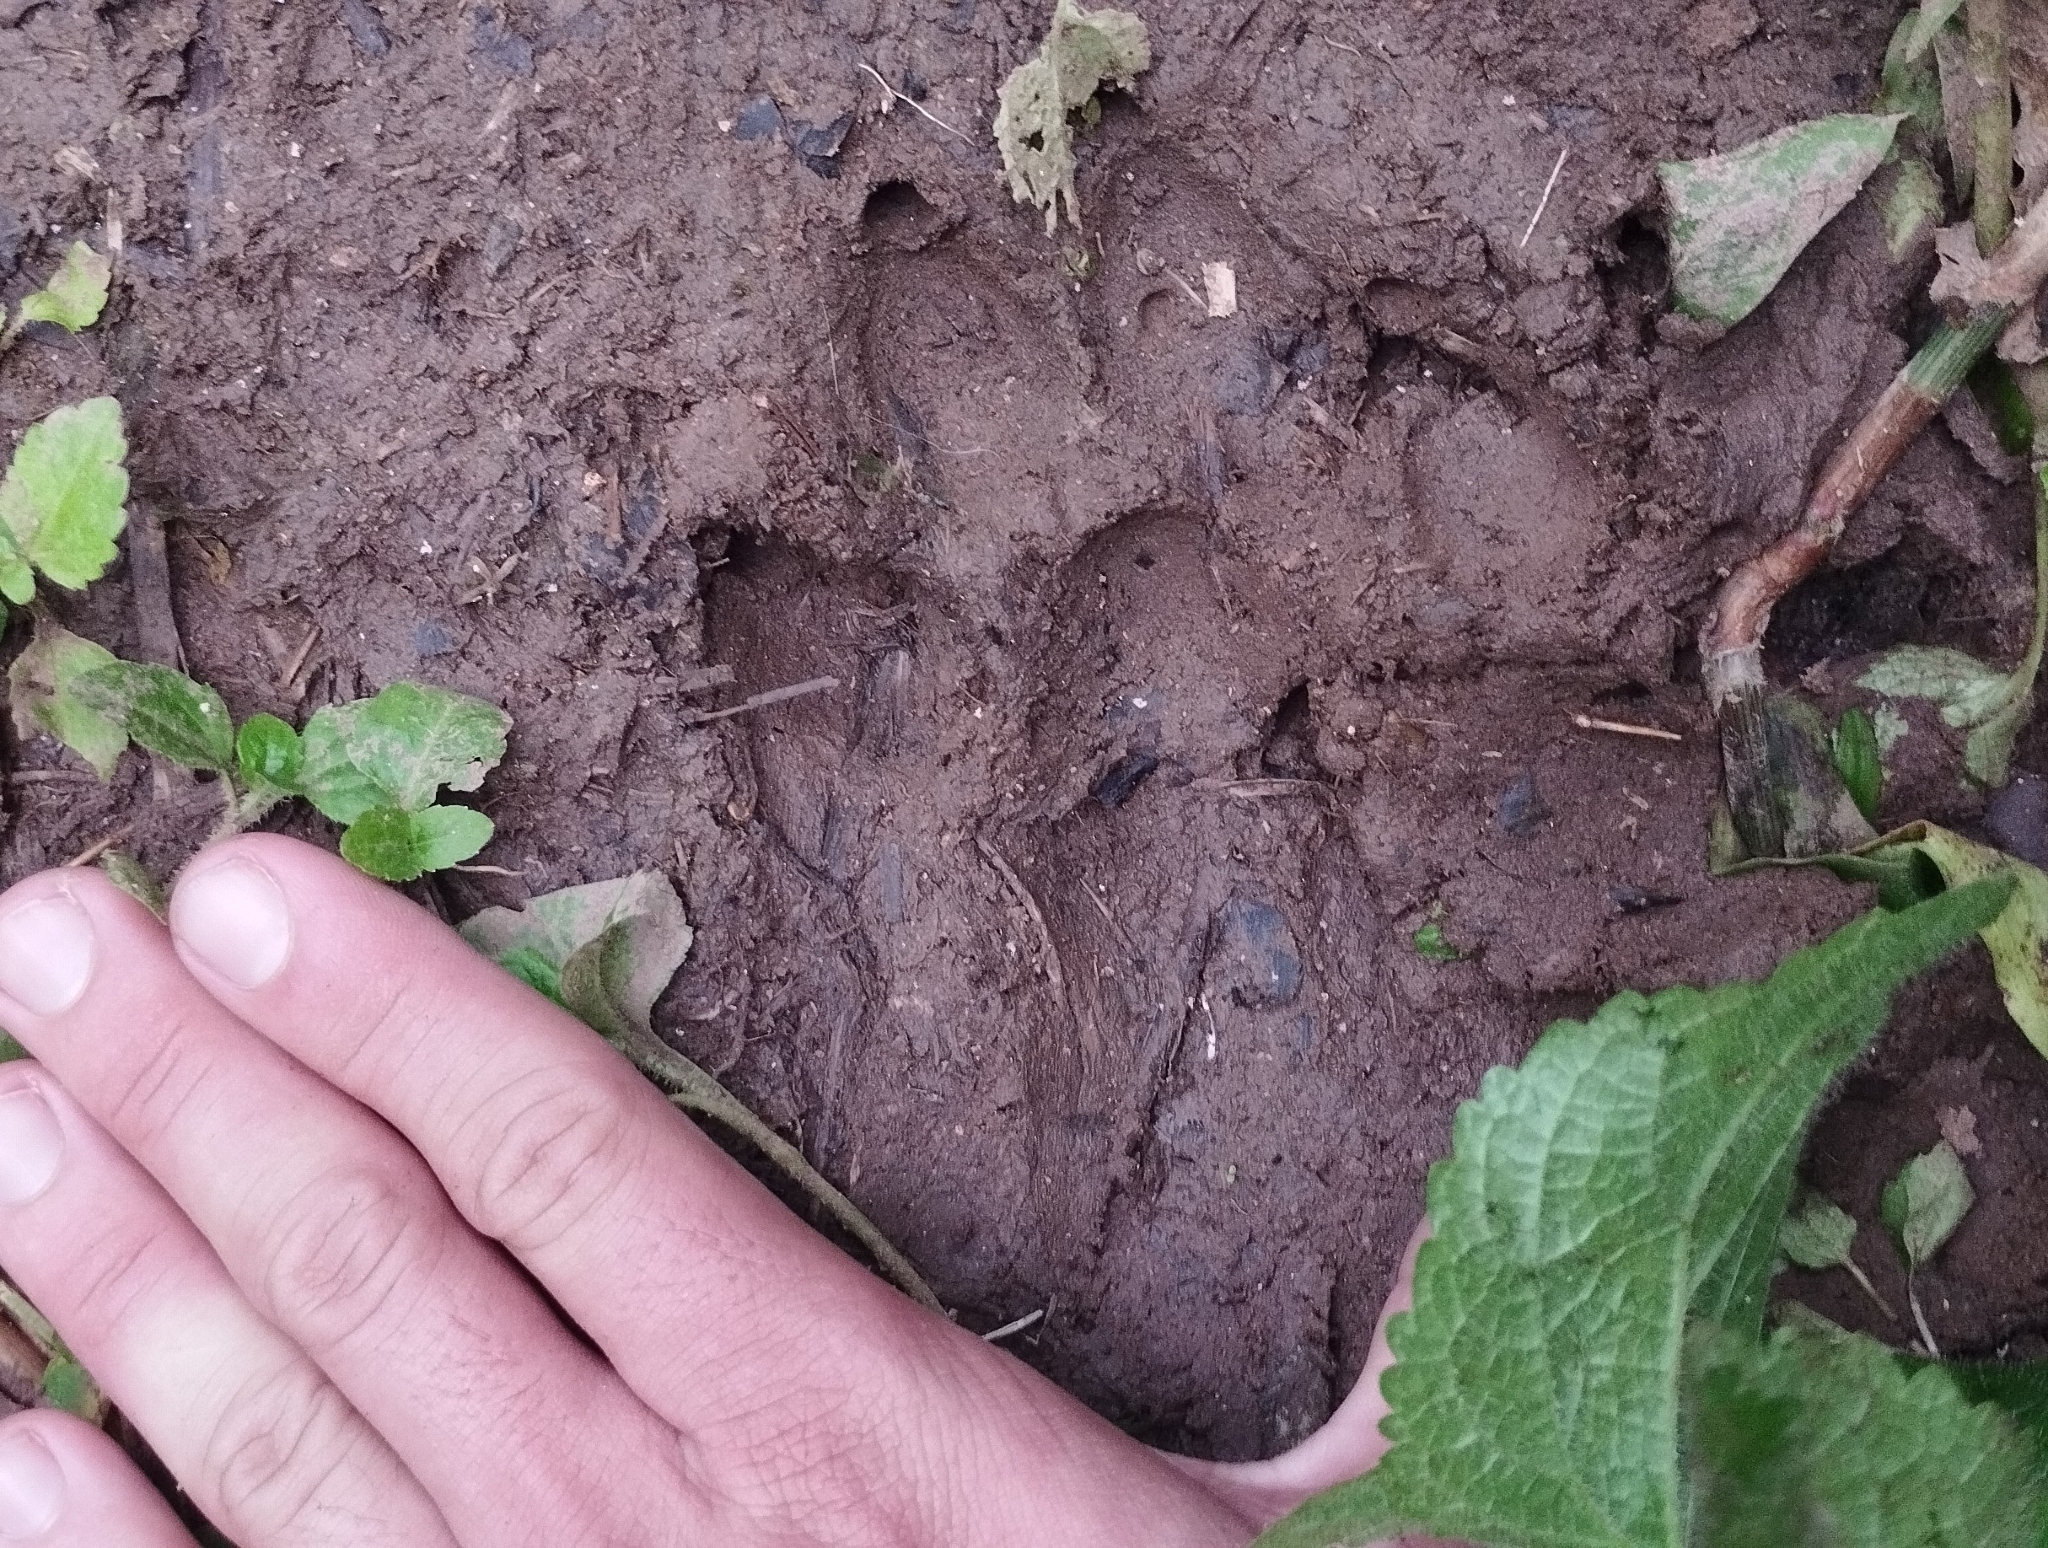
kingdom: Animalia
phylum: Chordata
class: Mammalia
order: Carnivora
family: Canidae
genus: Canis
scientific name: Canis lupus
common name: Gray wolf
